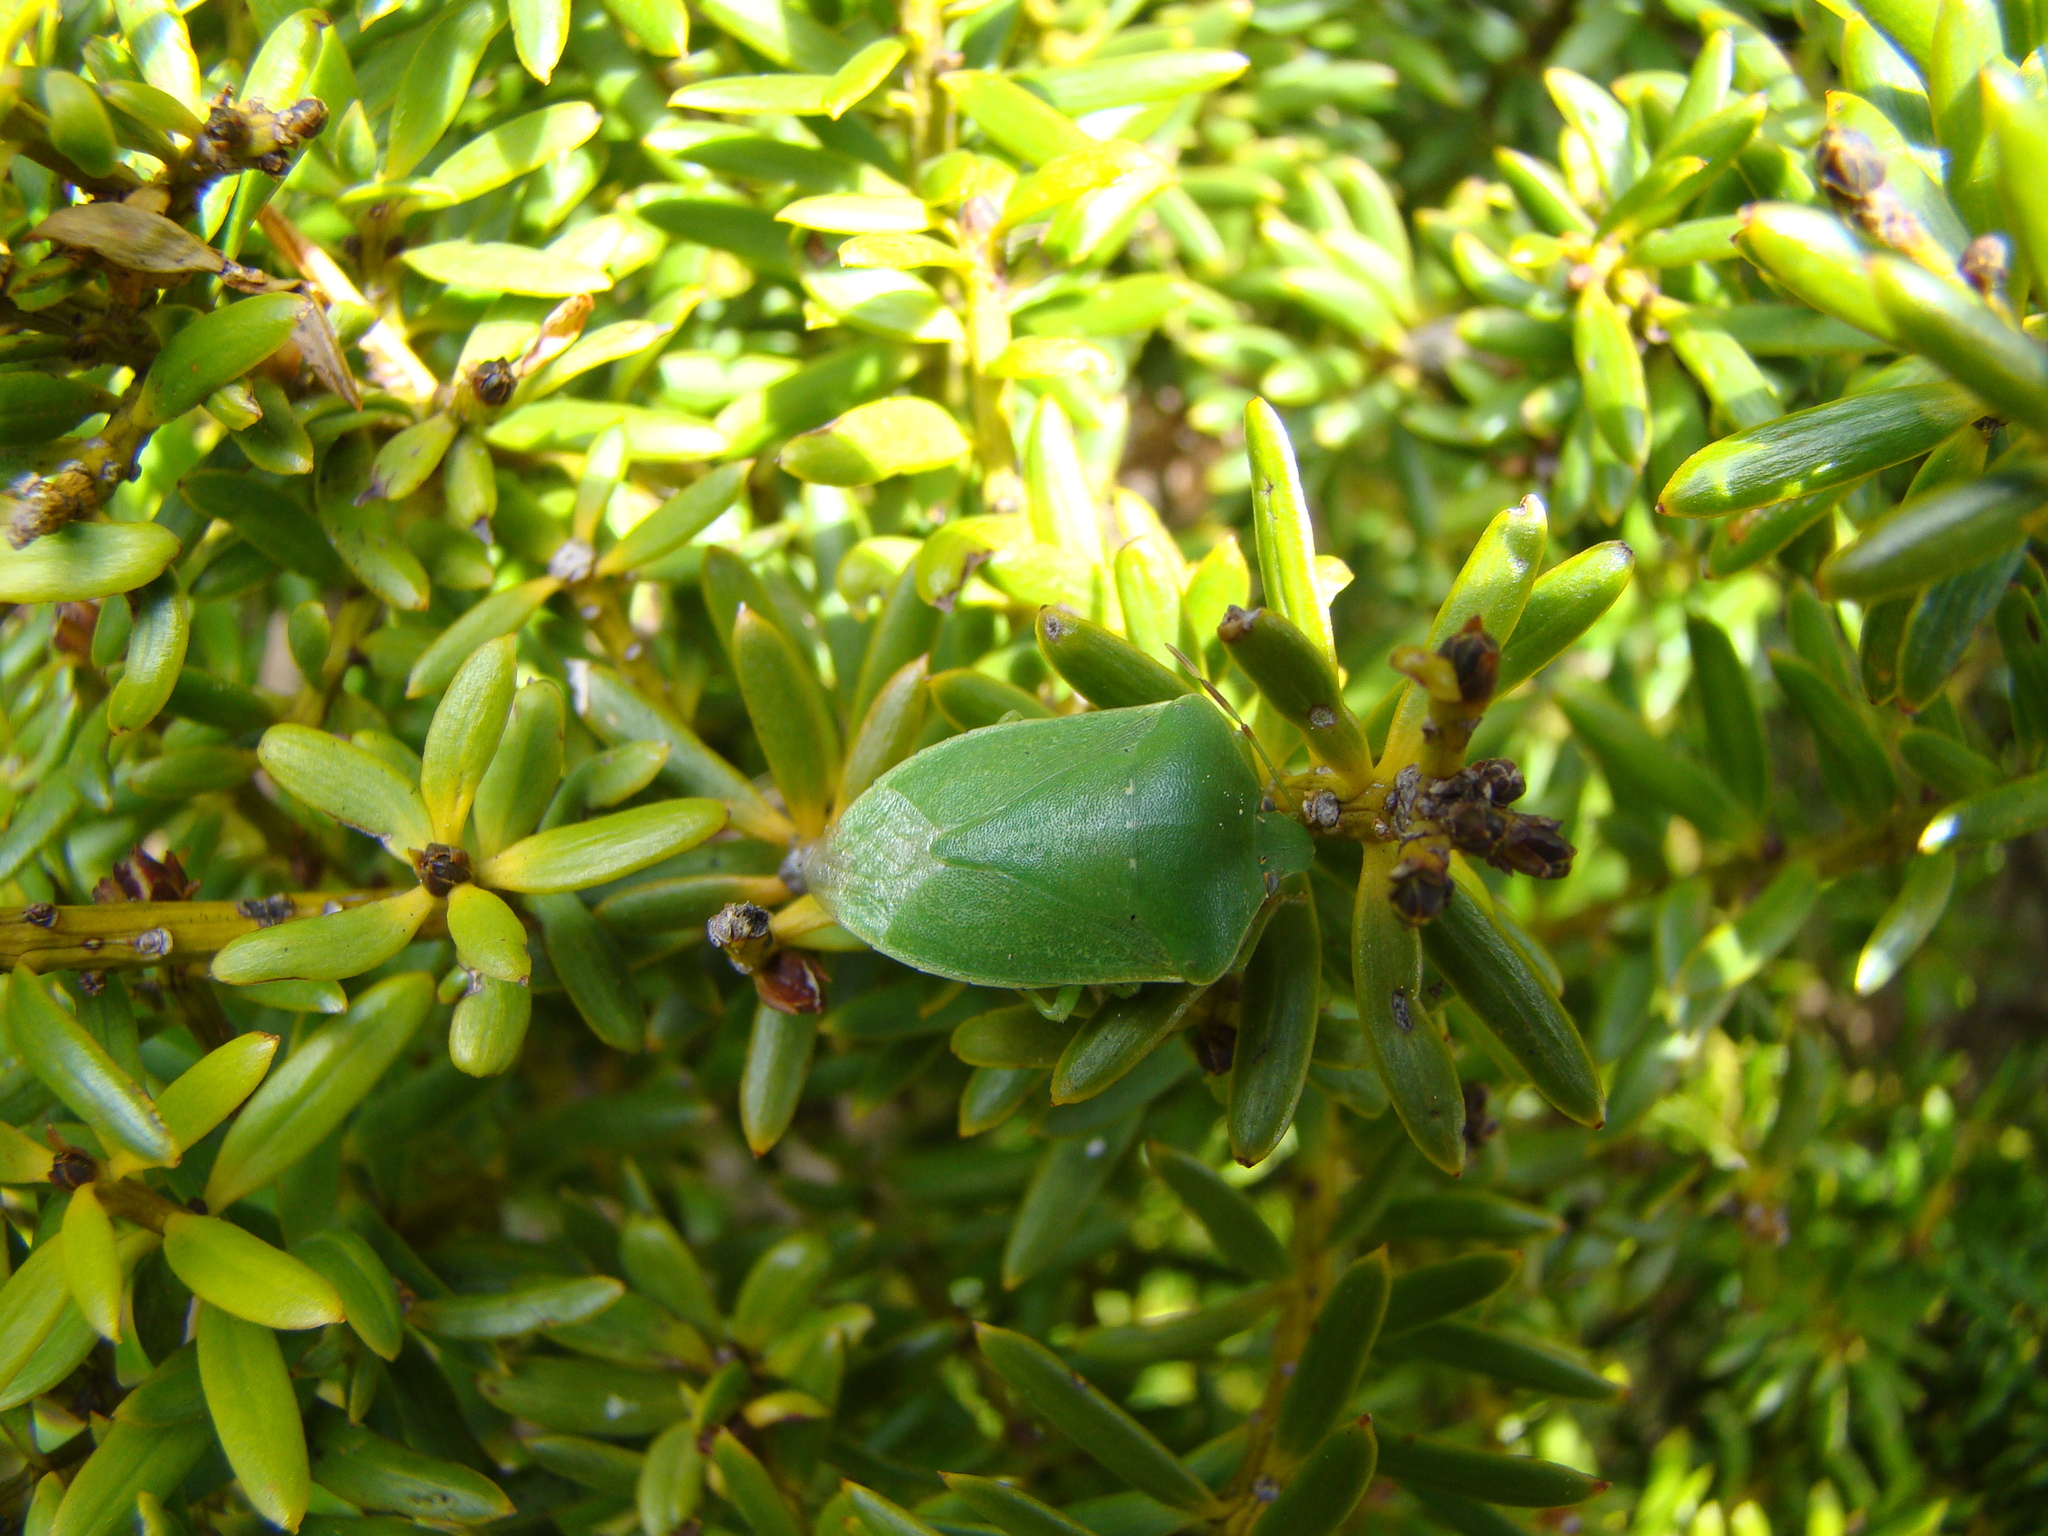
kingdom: Animalia
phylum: Arthropoda
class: Insecta
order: Hemiptera
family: Pentatomidae
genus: Nezara
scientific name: Nezara viridula
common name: Southern green stink bug
